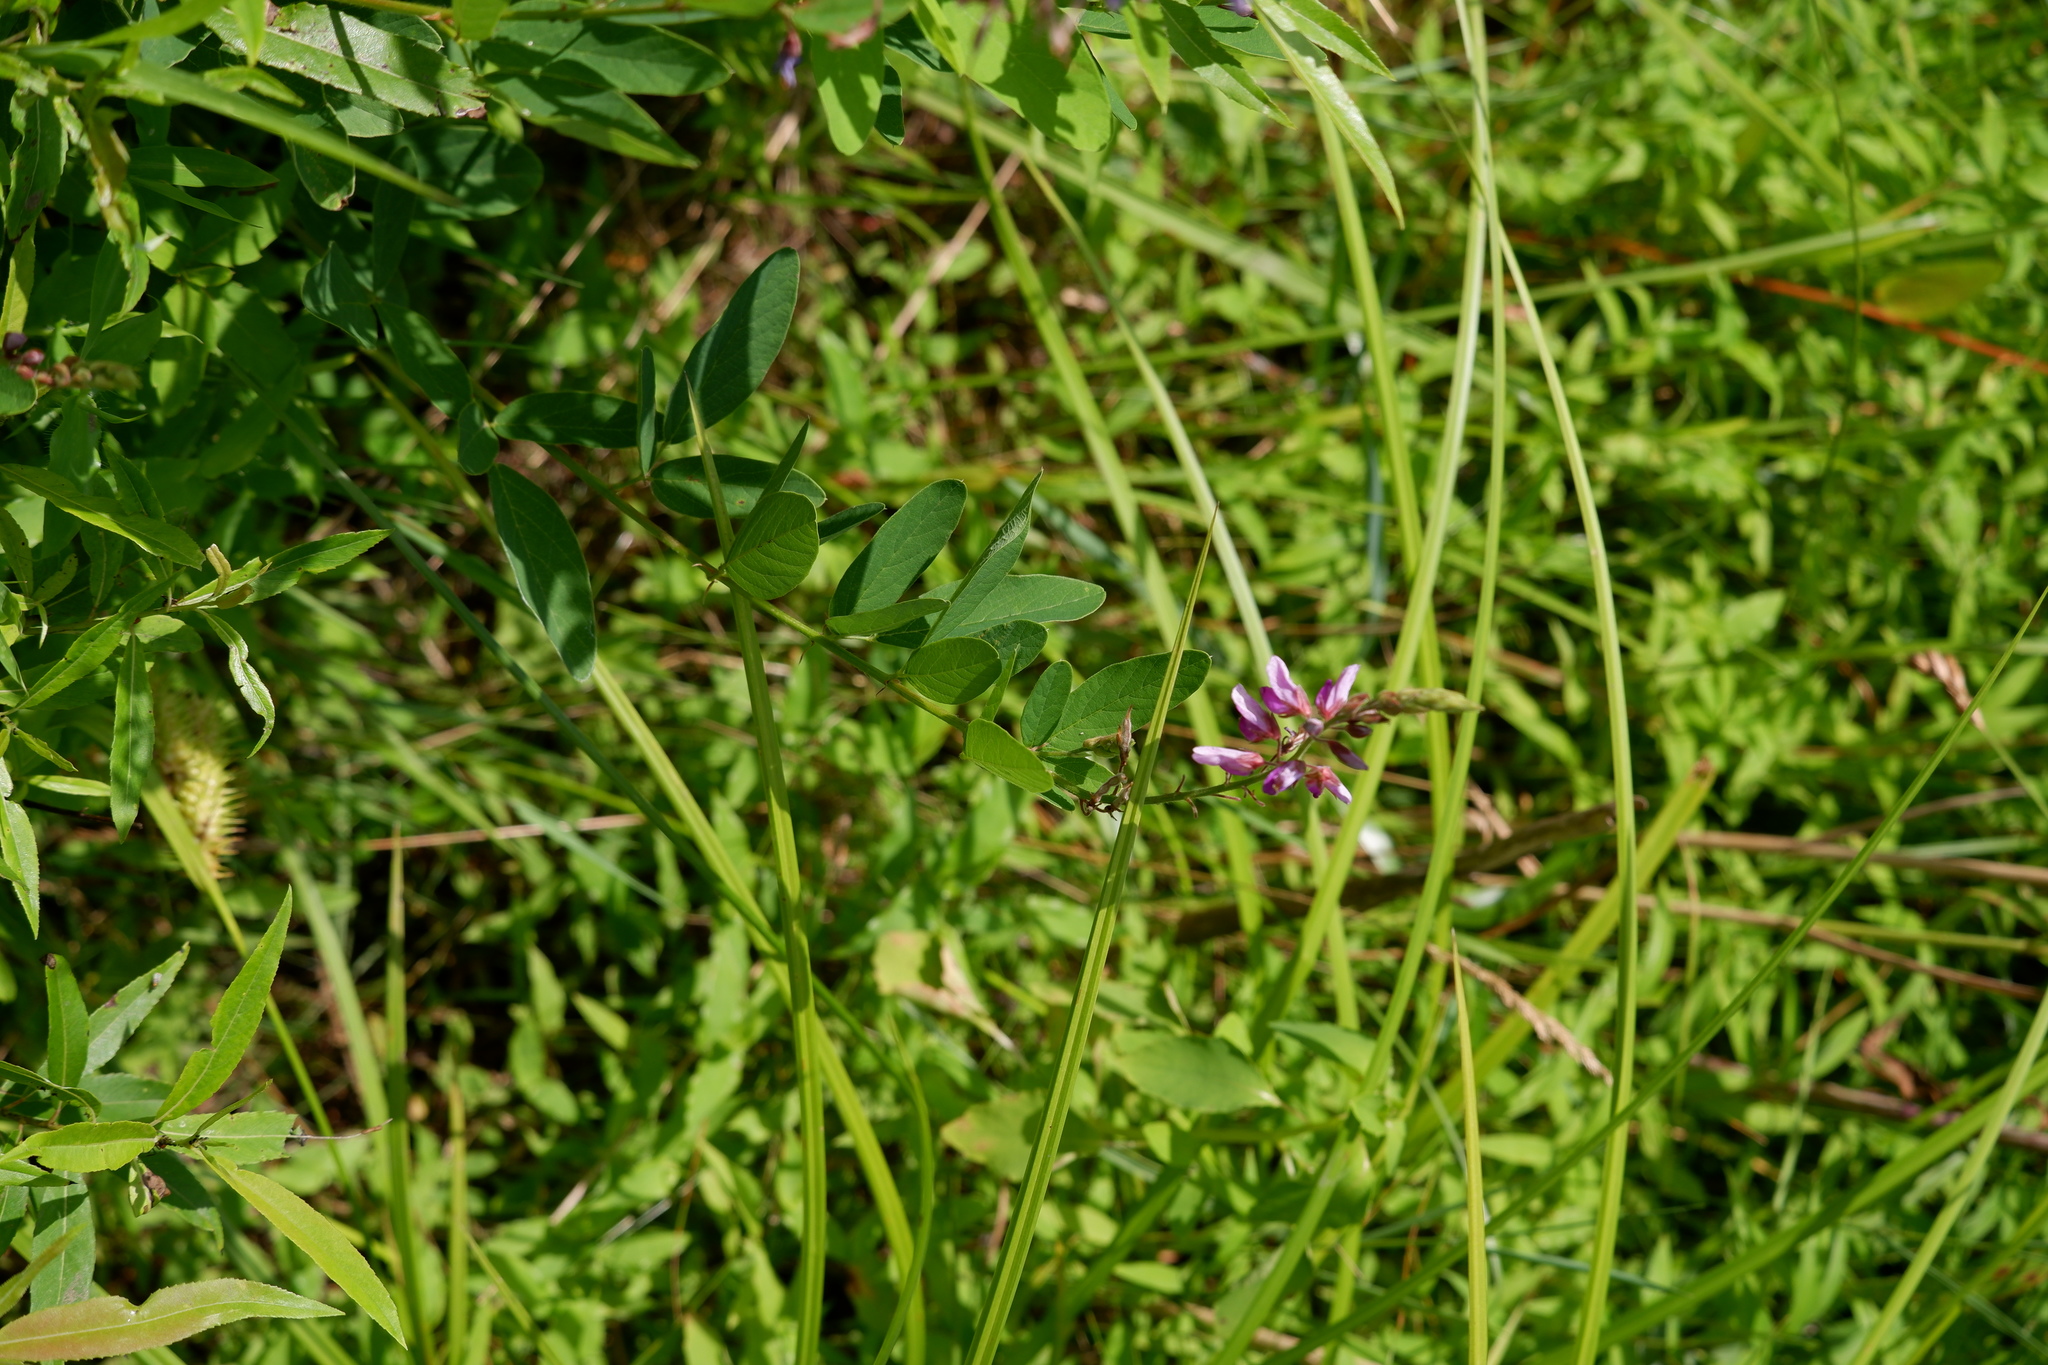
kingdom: Plantae
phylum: Tracheophyta
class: Magnoliopsida
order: Fabales
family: Fabaceae
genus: Desmodium
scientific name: Desmodium canadense
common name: Canada tick-trefoil
